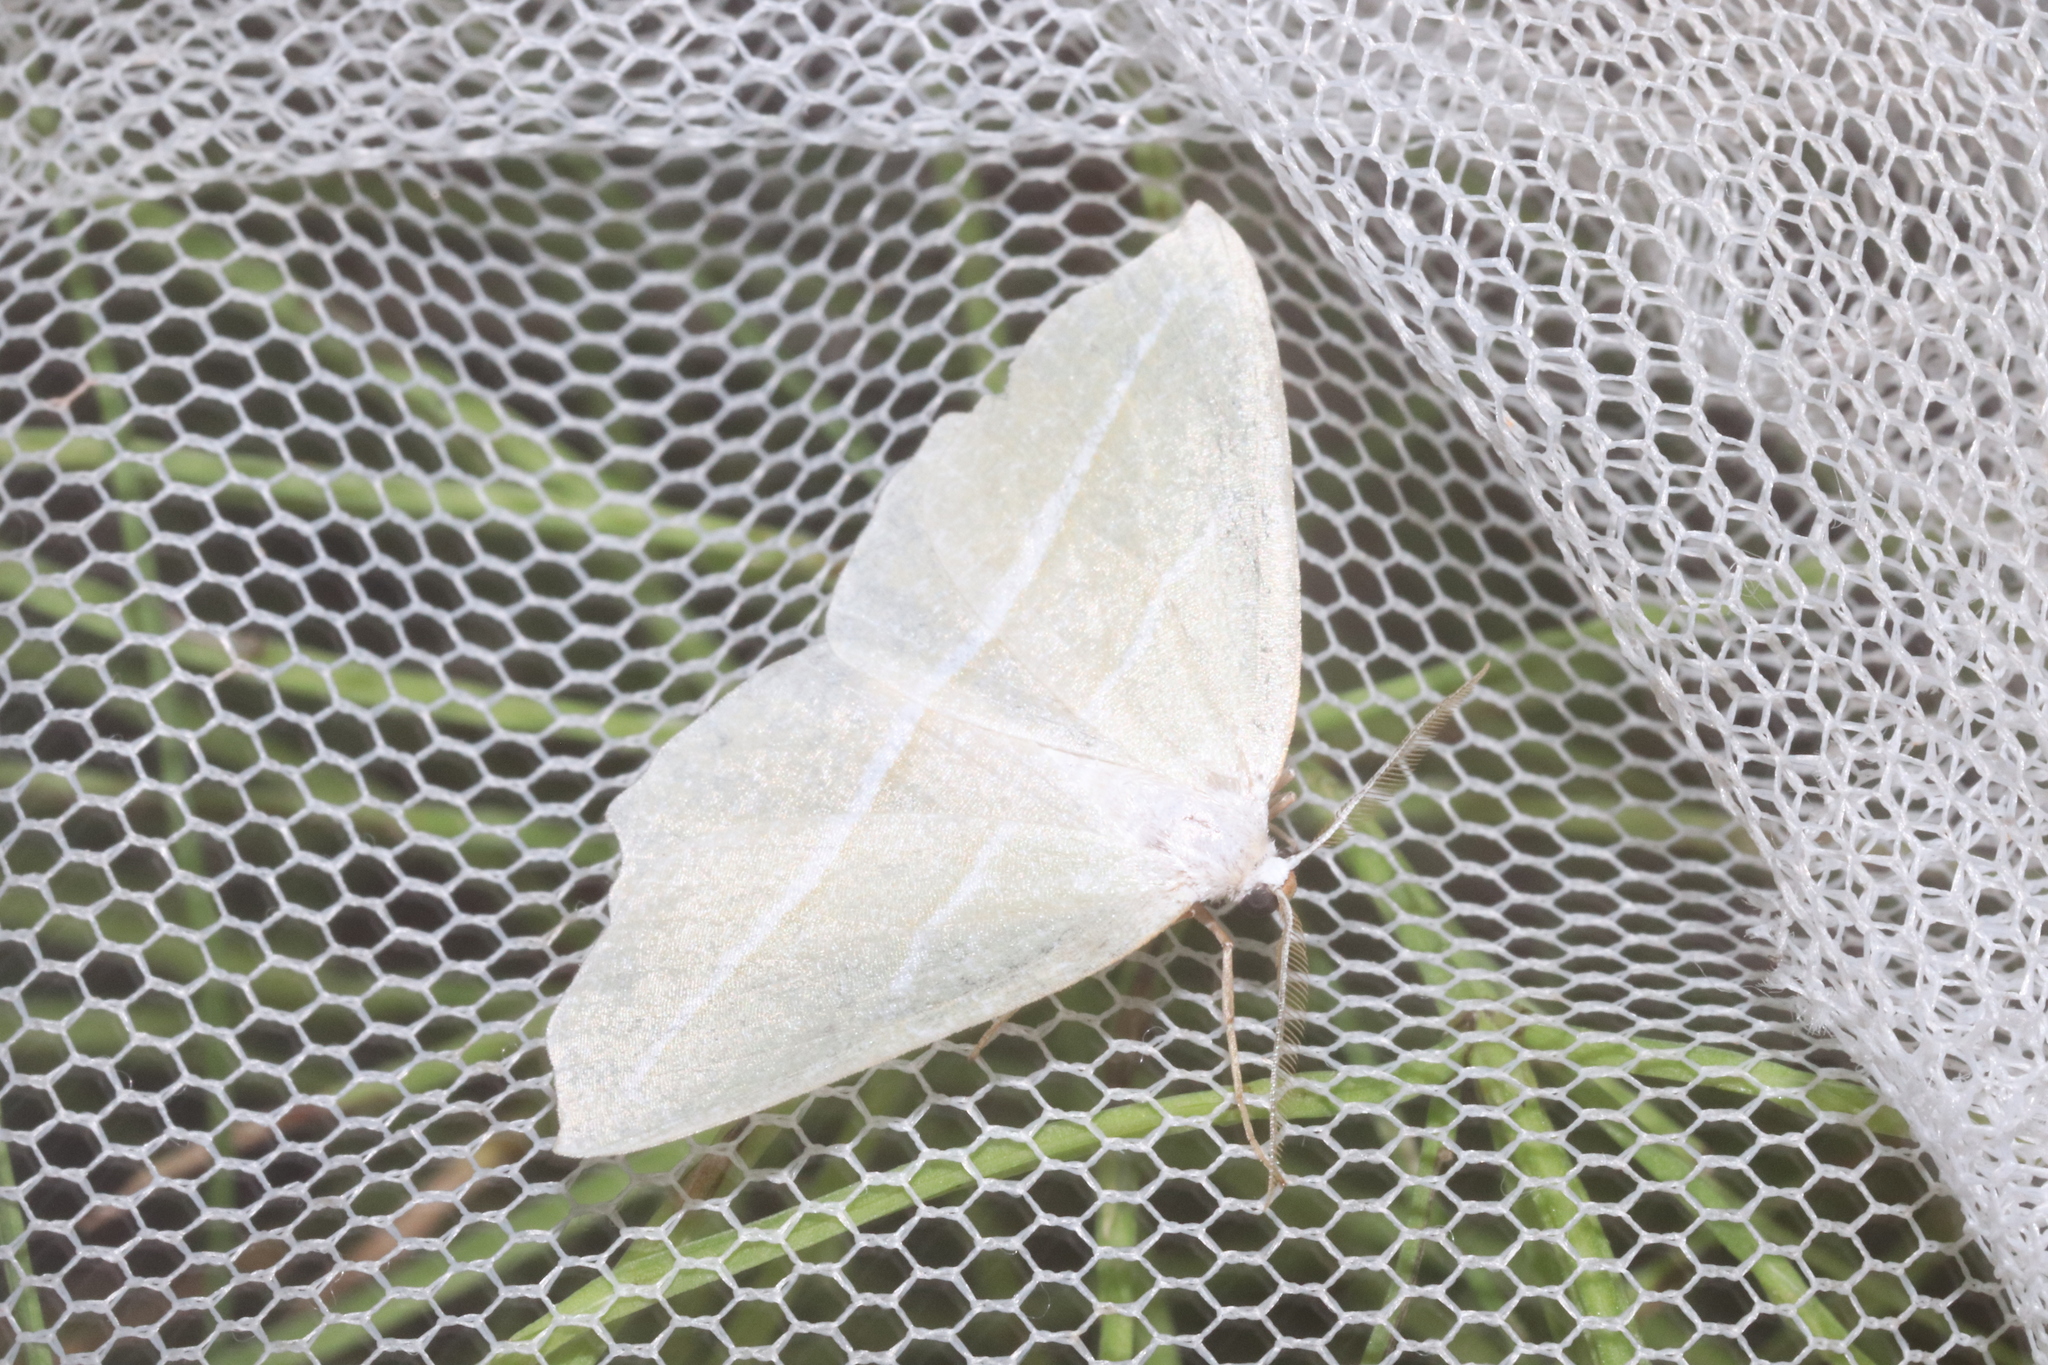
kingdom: Animalia
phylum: Arthropoda
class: Insecta
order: Lepidoptera
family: Geometridae
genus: Campaea
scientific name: Campaea perlata
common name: Fringed looper
